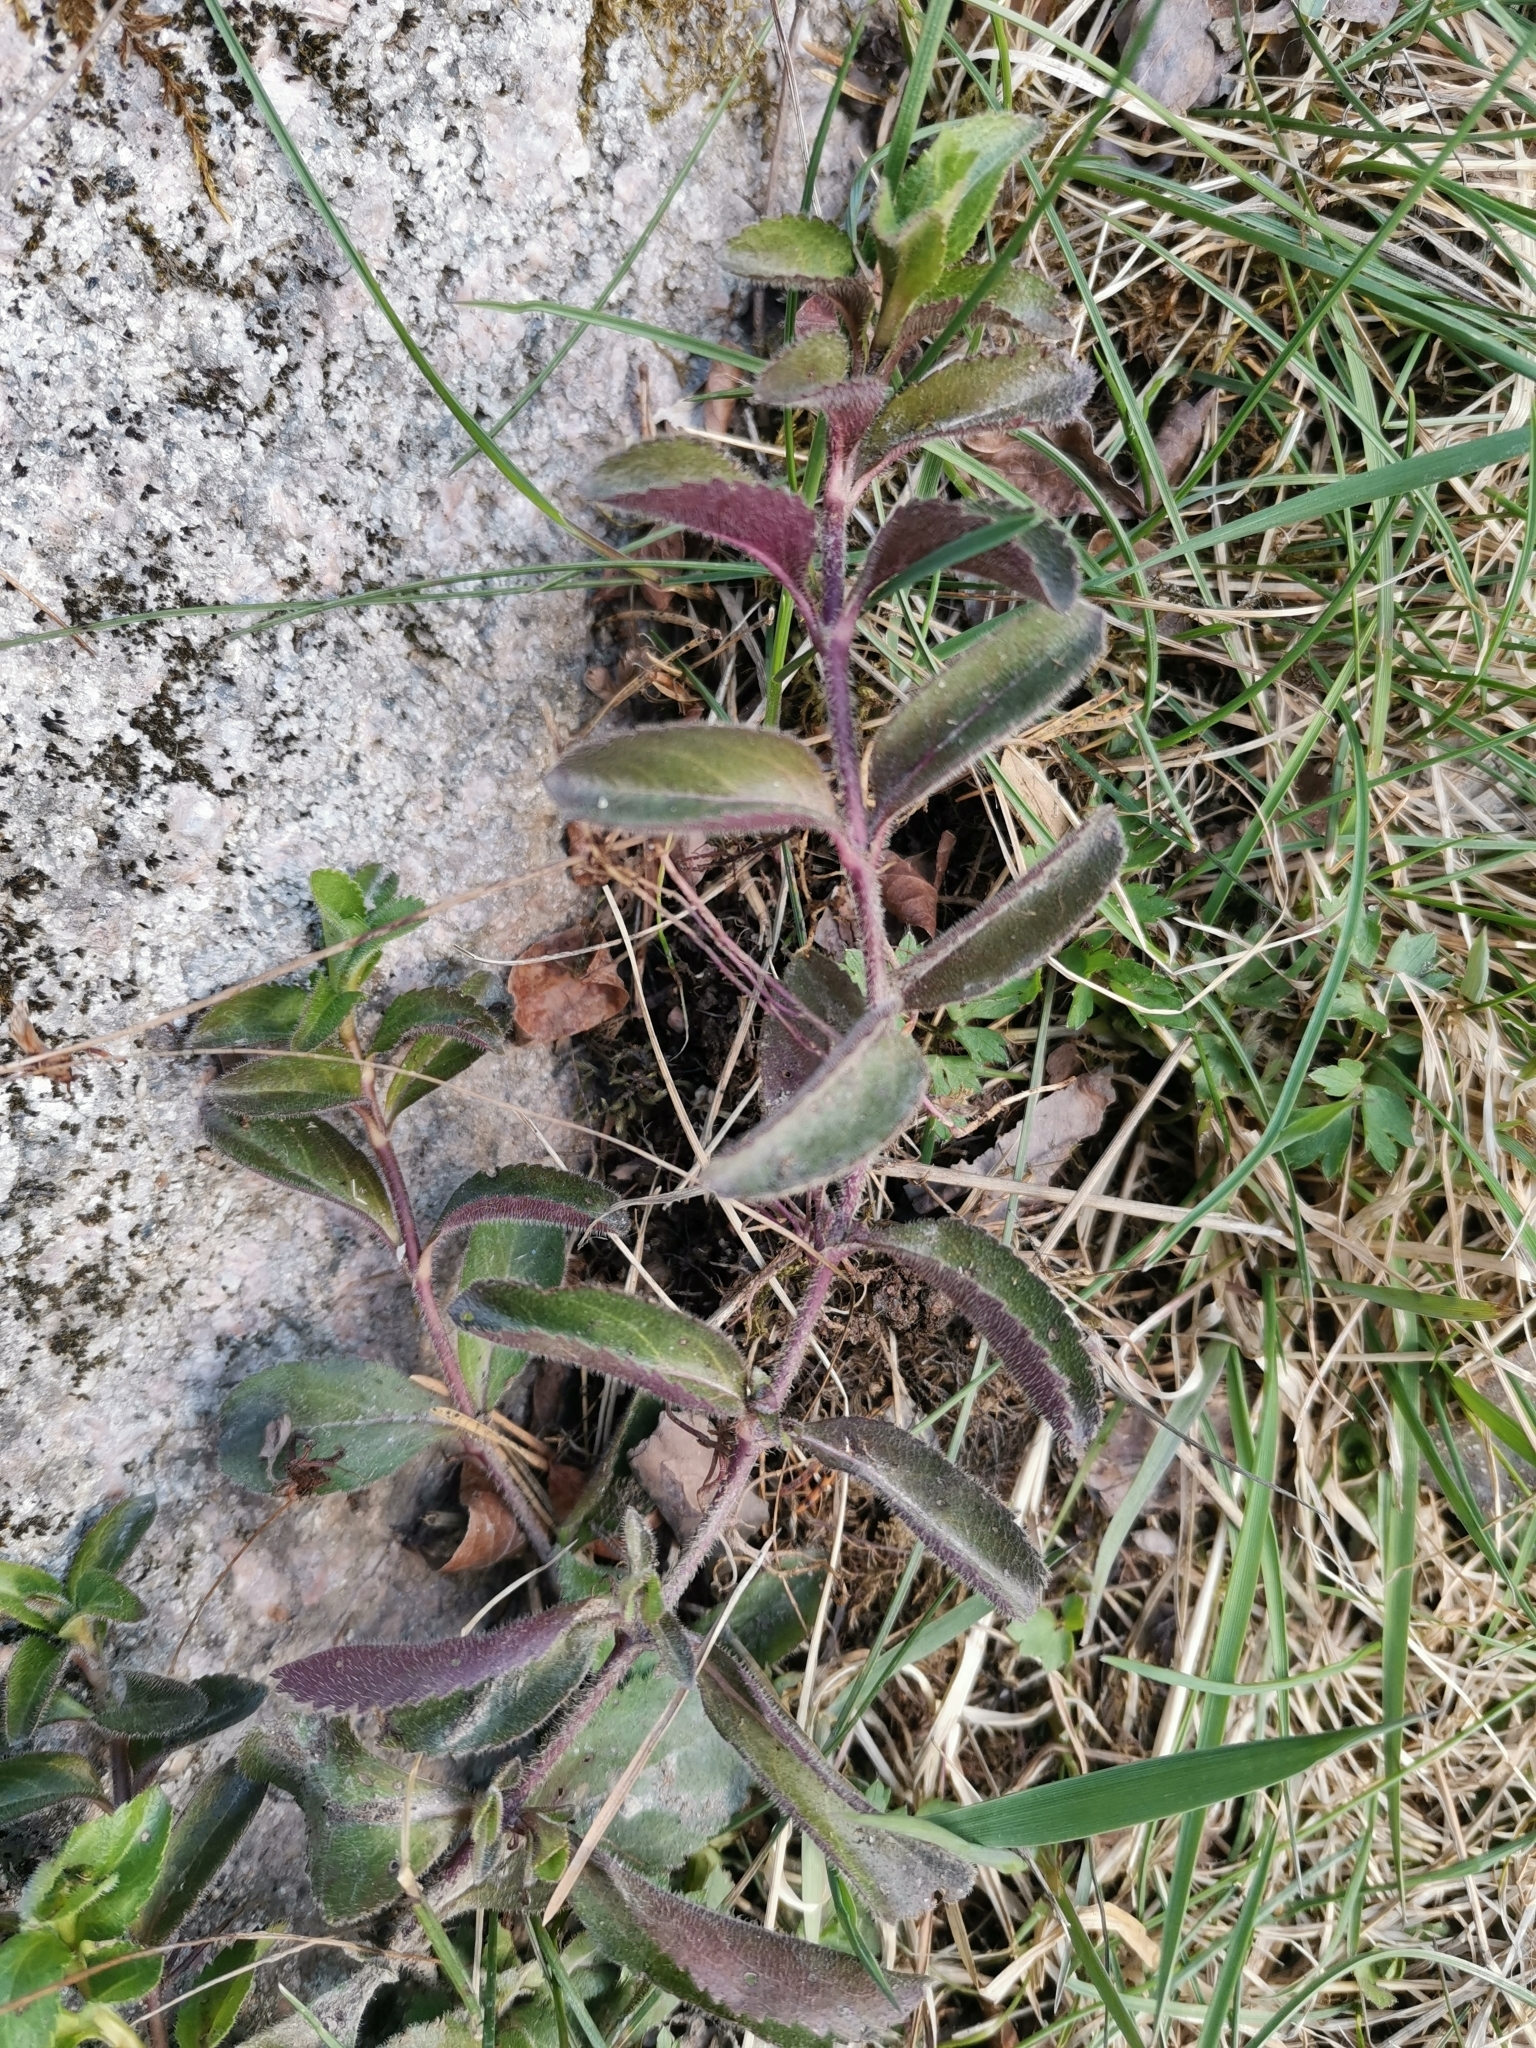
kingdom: Plantae
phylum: Tracheophyta
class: Magnoliopsida
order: Lamiales
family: Plantaginaceae
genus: Veronica
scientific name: Veronica officinalis
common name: Common speedwell
